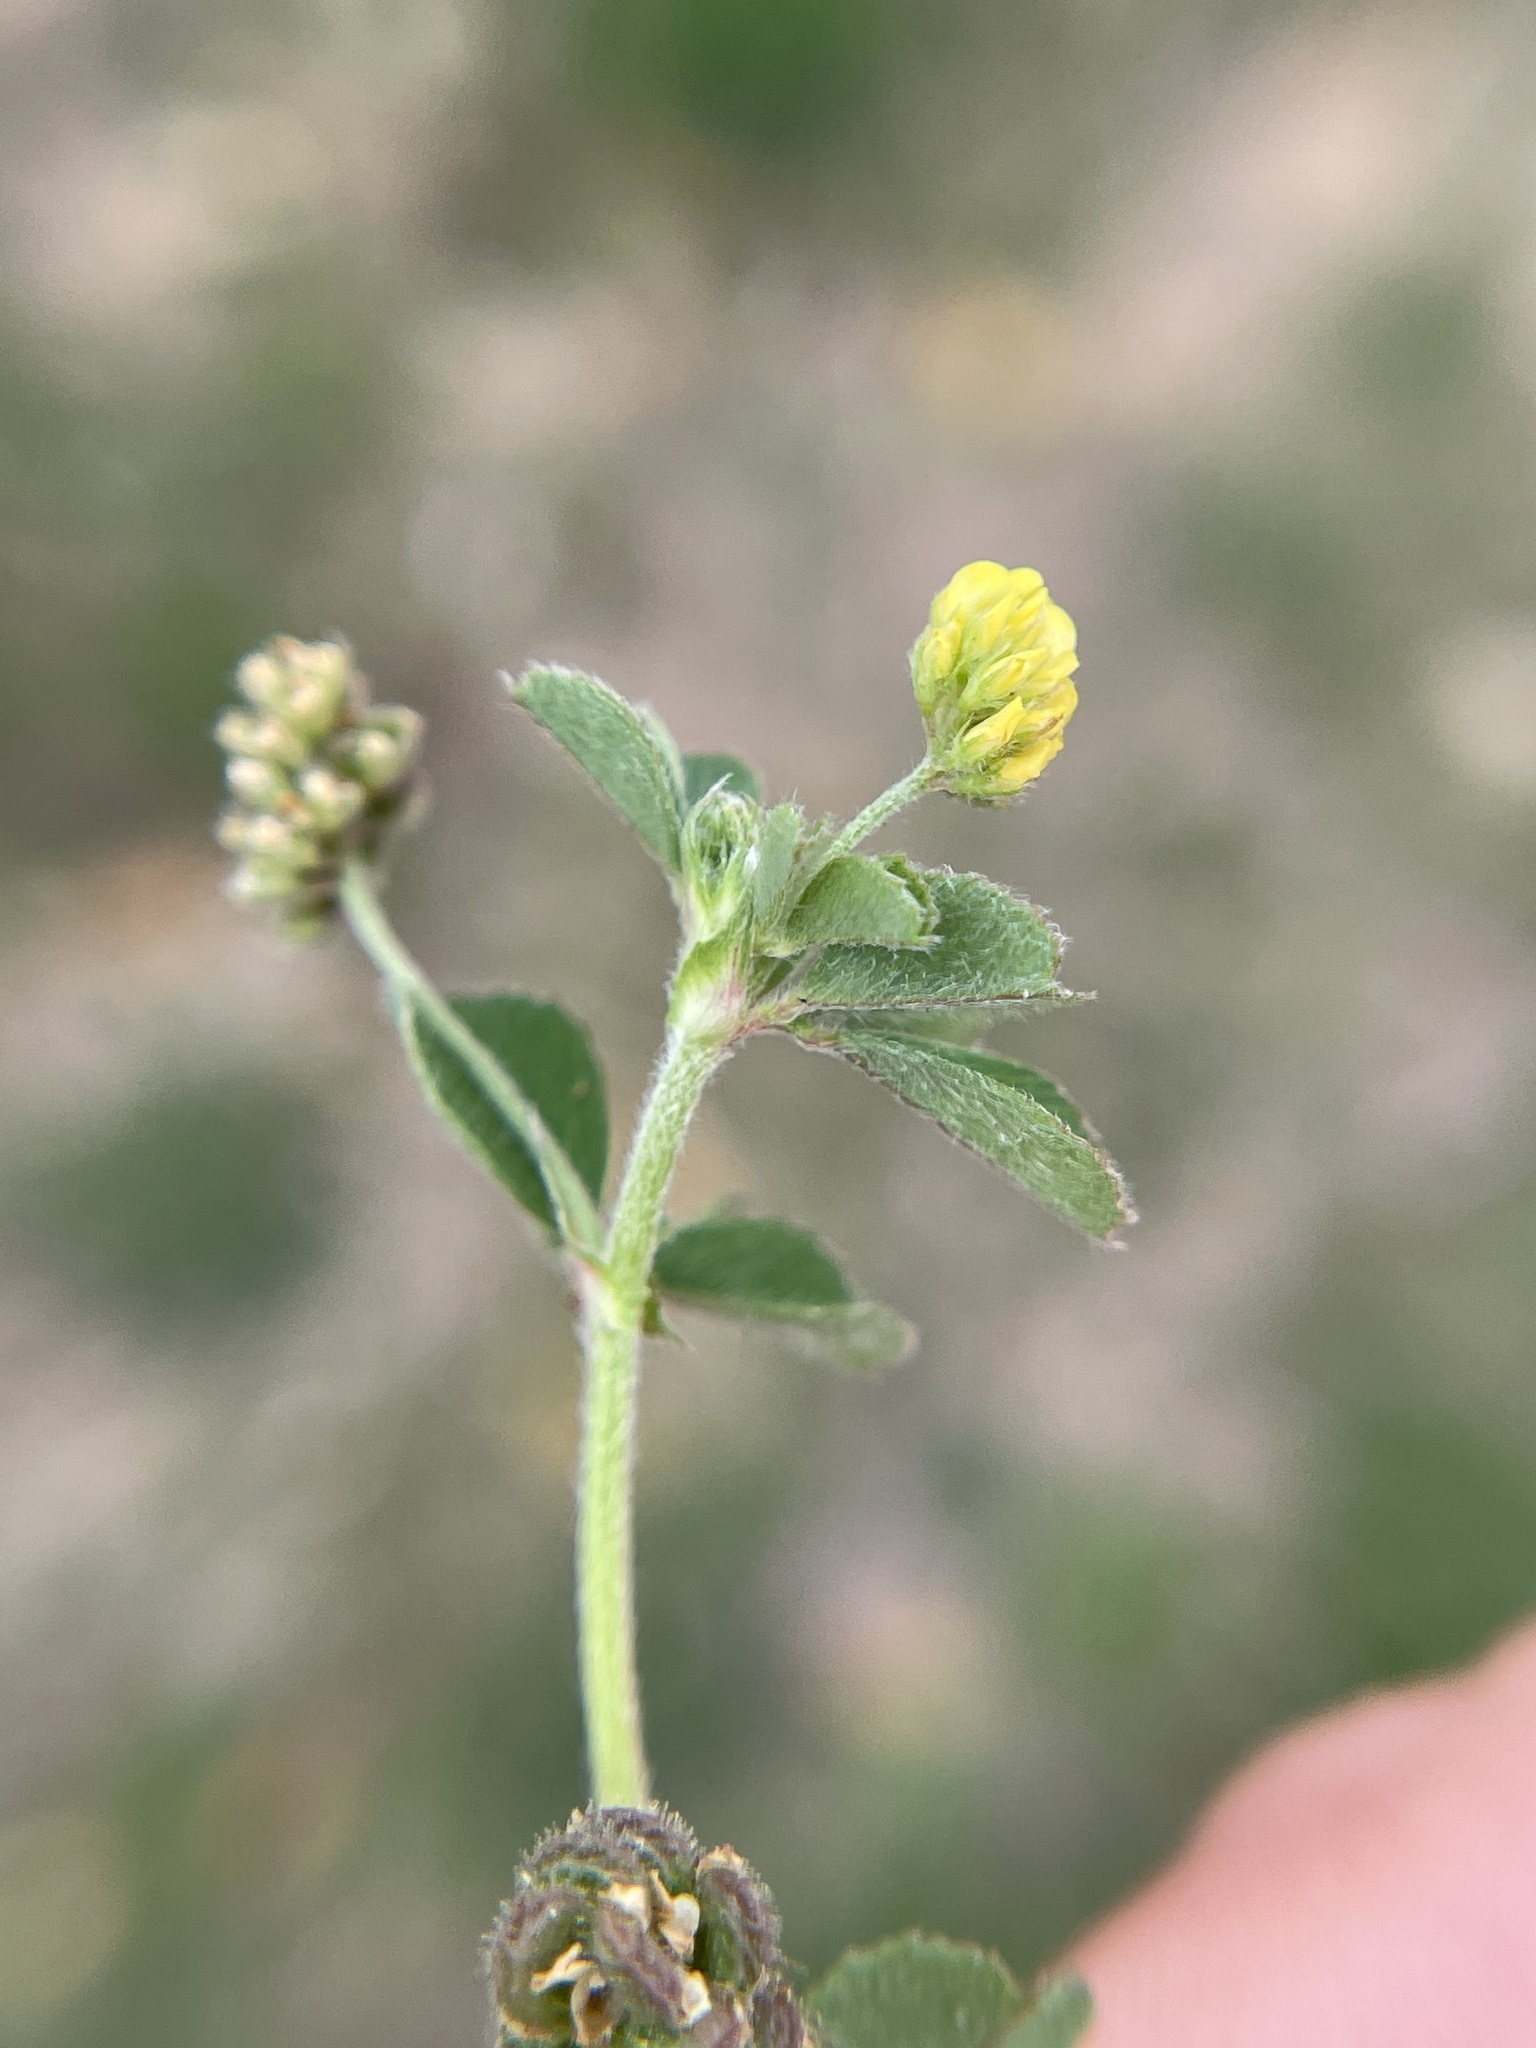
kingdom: Plantae
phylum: Tracheophyta
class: Magnoliopsida
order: Fabales
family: Fabaceae
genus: Medicago
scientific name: Medicago lupulina
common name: Black medick
